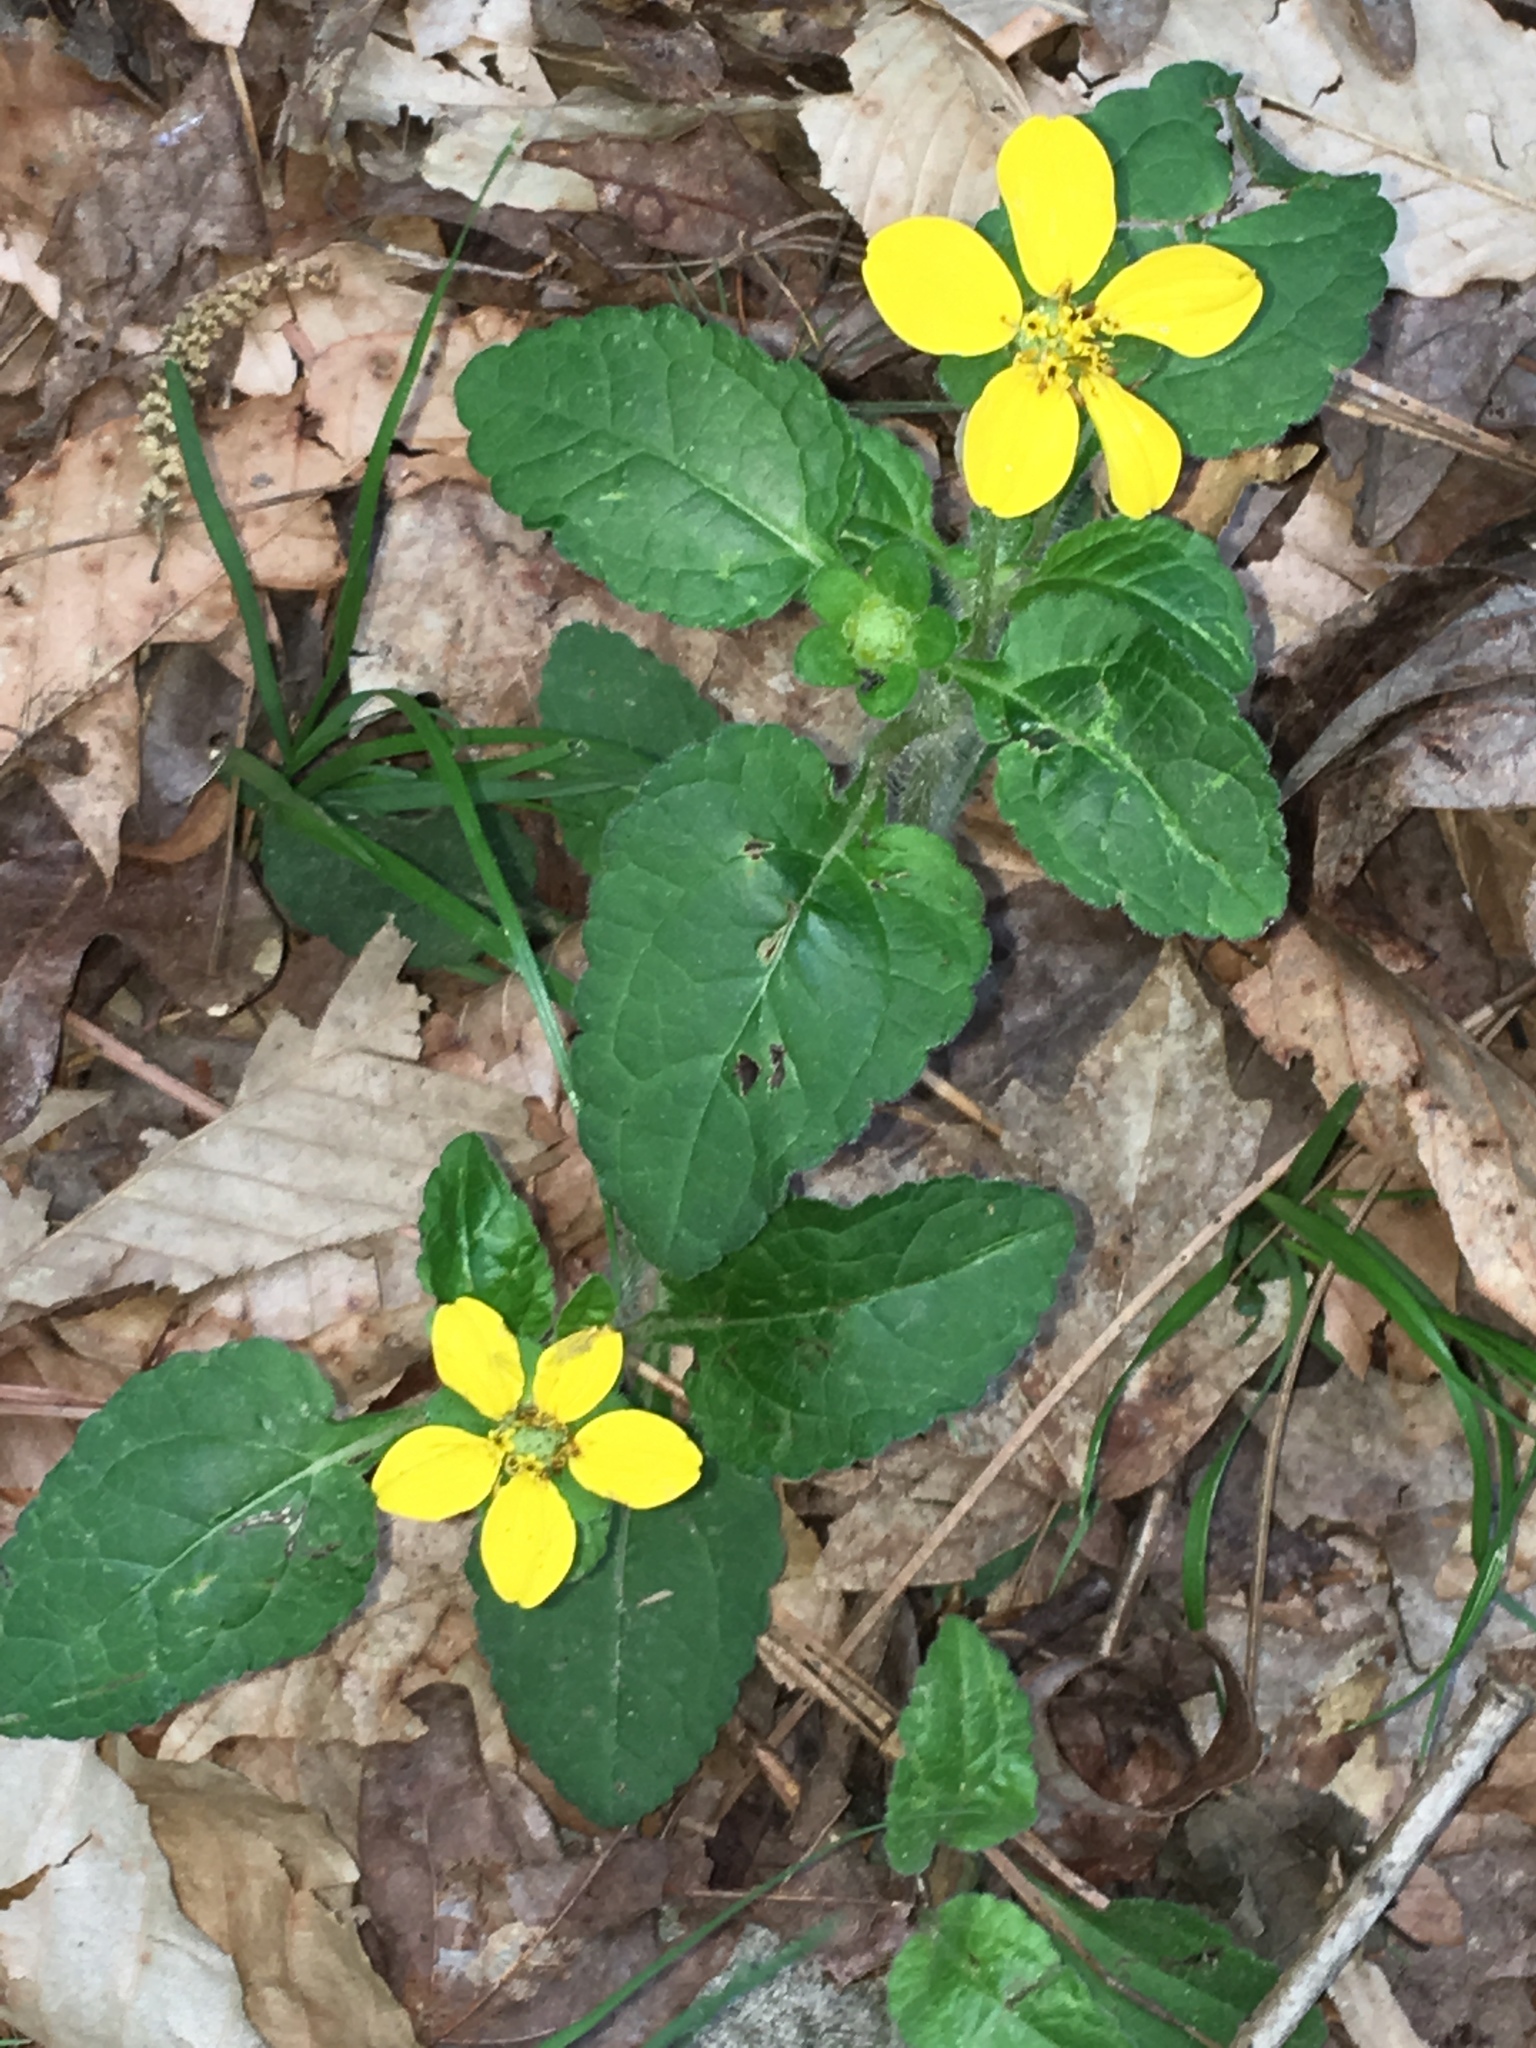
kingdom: Plantae
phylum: Tracheophyta
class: Magnoliopsida
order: Asterales
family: Asteraceae
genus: Chrysogonum
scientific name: Chrysogonum virginianum
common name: Golden-knee
